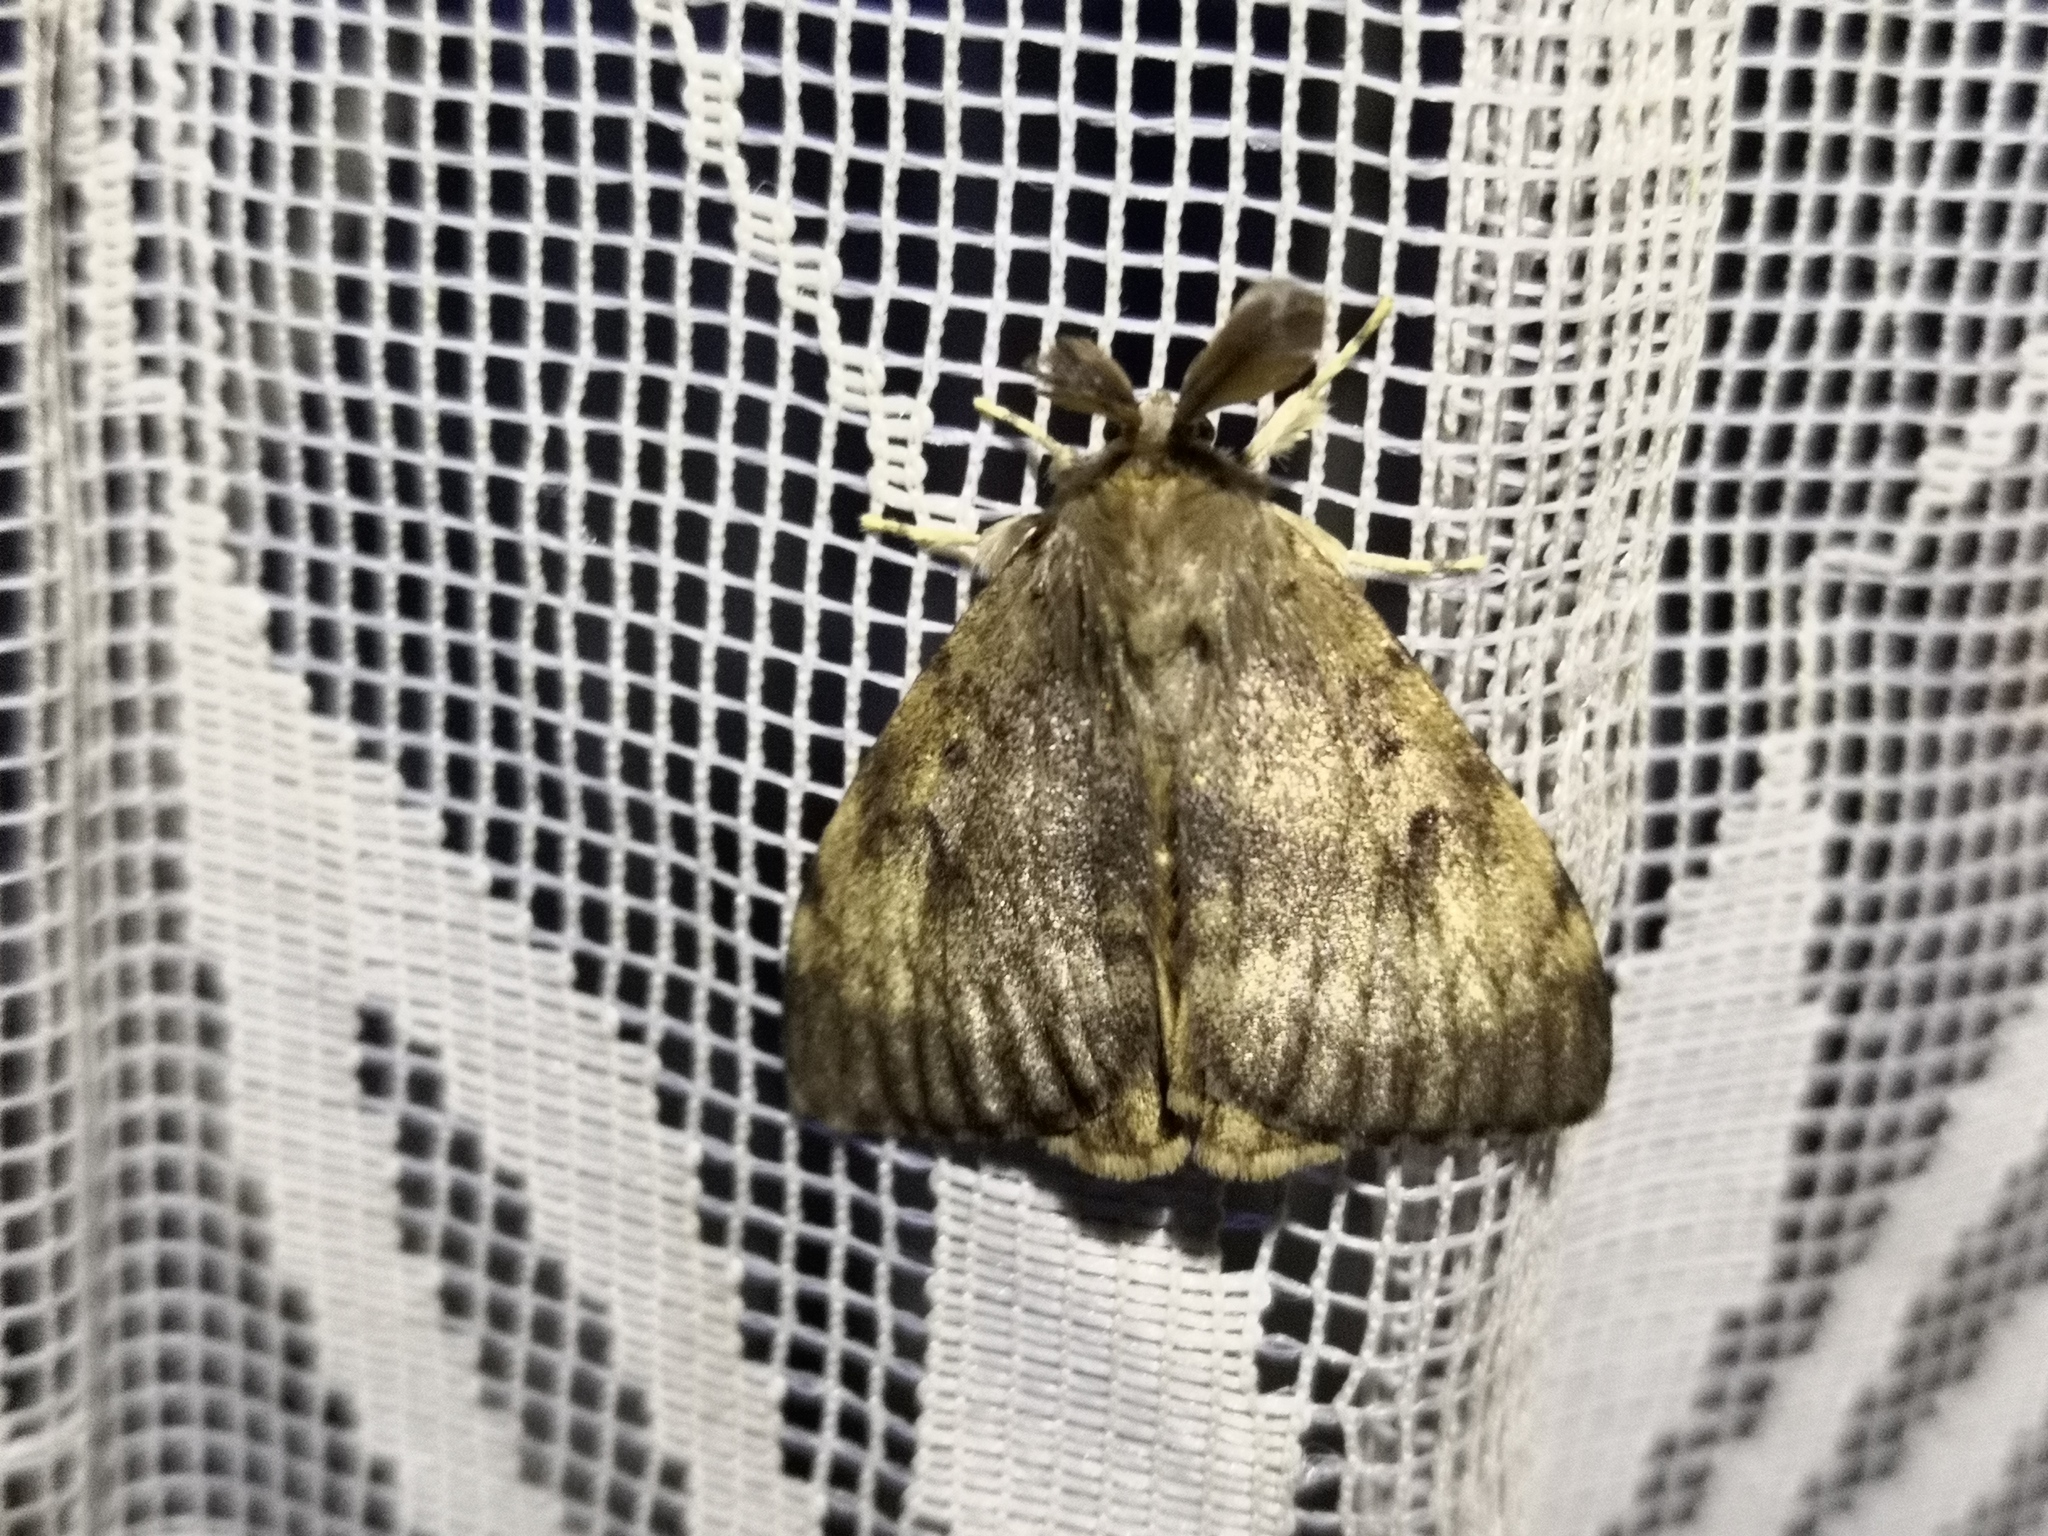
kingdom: Animalia
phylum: Arthropoda
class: Insecta
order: Lepidoptera
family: Erebidae
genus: Lymantria
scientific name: Lymantria dispar
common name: Gypsy moth
